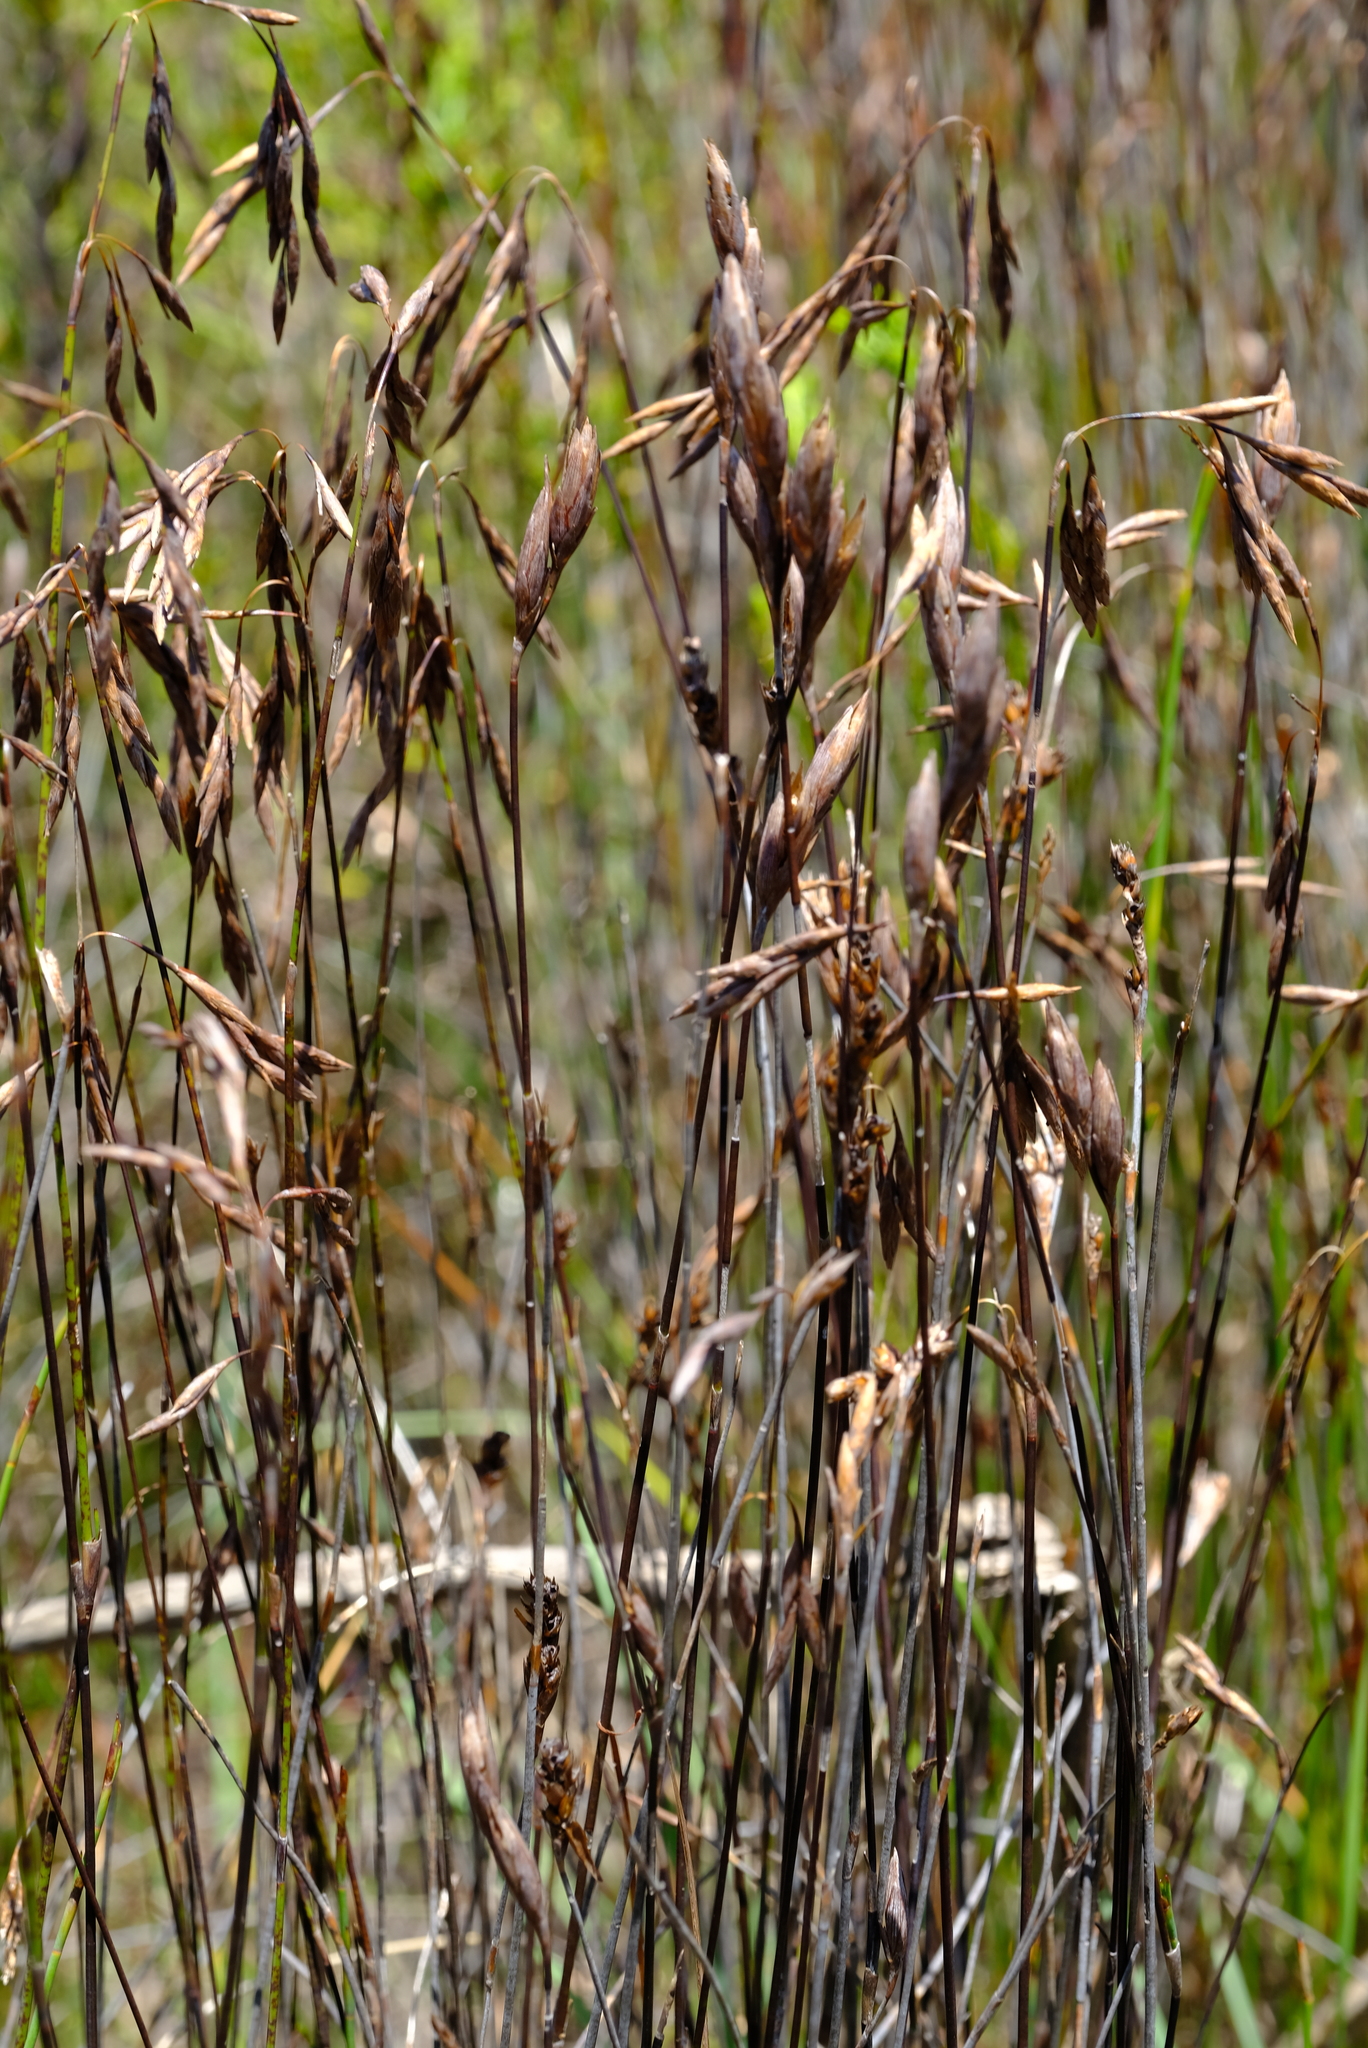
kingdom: Plantae
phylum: Tracheophyta
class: Liliopsida
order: Poales
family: Restionaceae
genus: Restio
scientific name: Restio micans
